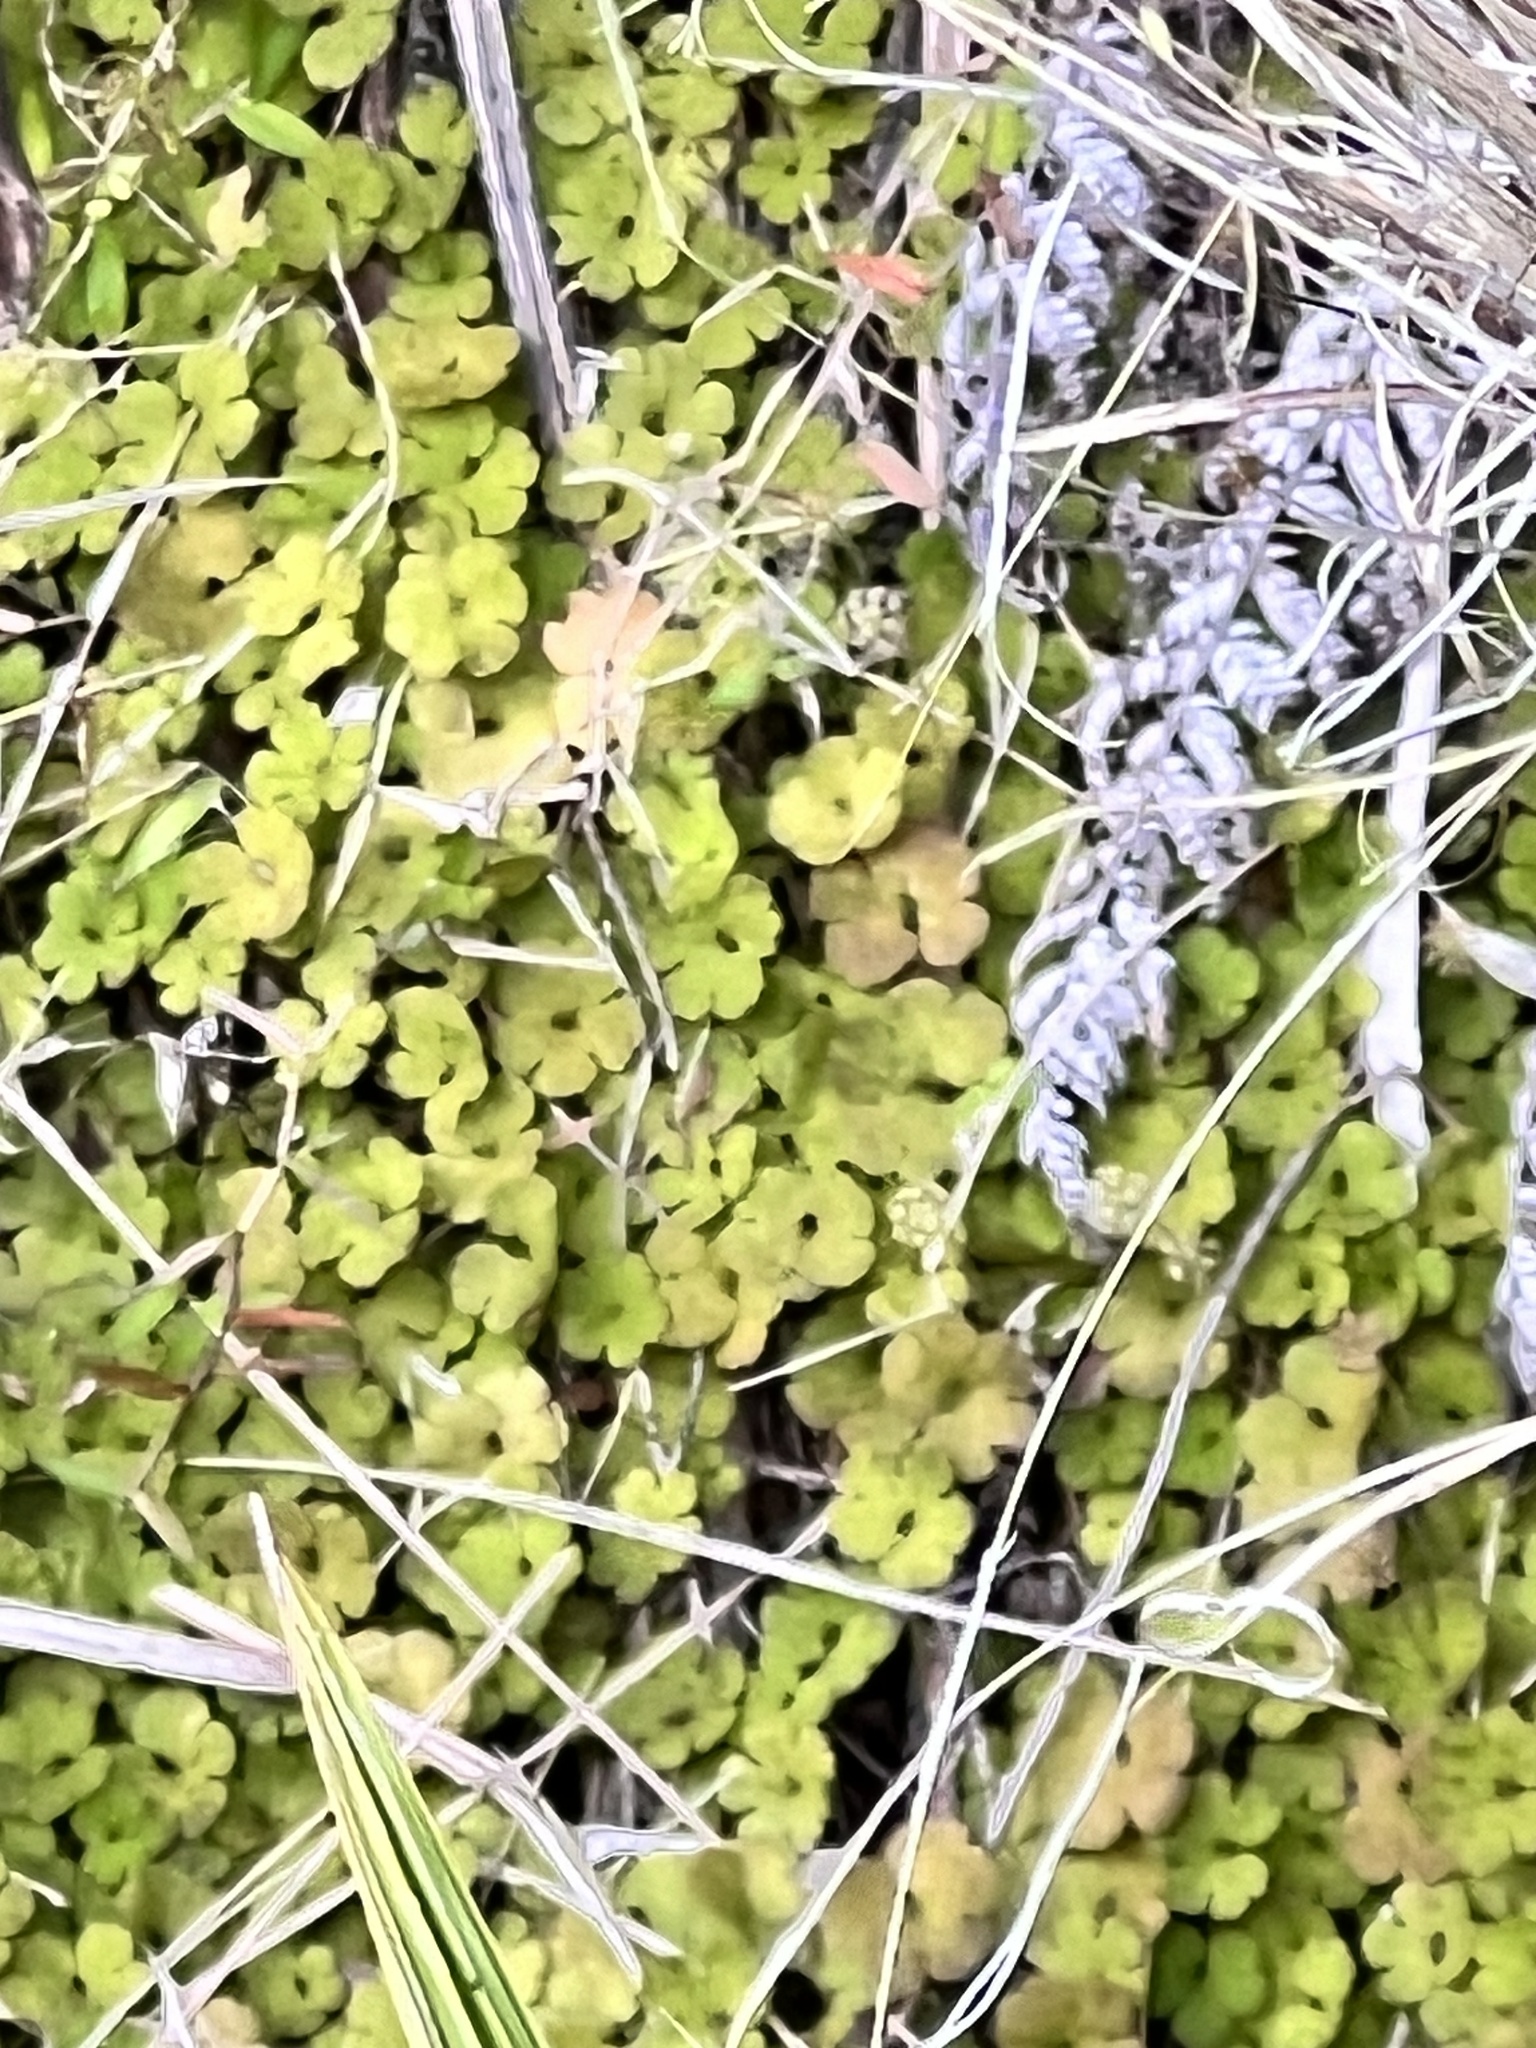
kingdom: Plantae
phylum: Tracheophyta
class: Magnoliopsida
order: Apiales
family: Araliaceae
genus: Hydrocotyle
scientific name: Hydrocotyle elongata
